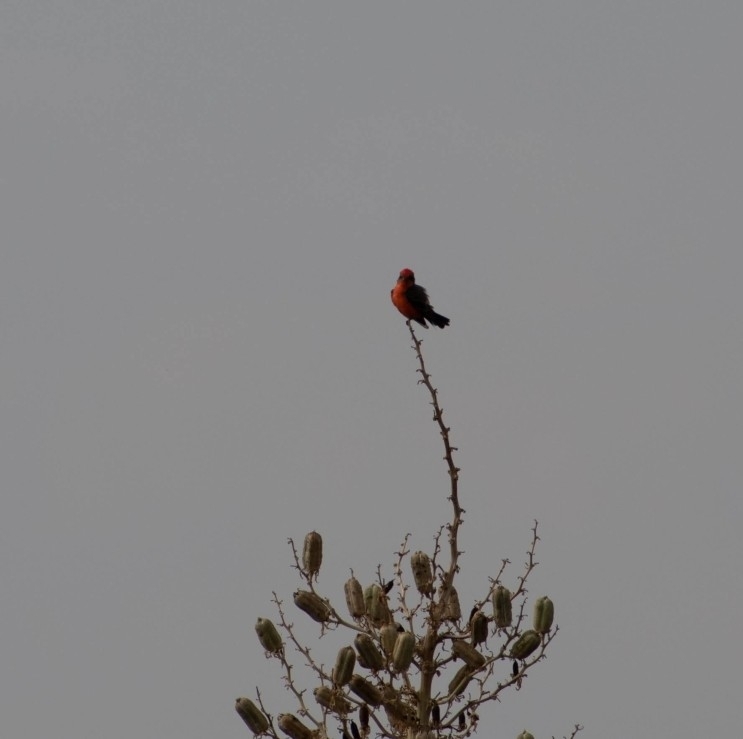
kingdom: Animalia
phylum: Chordata
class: Aves
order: Passeriformes
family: Tyrannidae
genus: Pyrocephalus
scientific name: Pyrocephalus rubinus
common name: Vermilion flycatcher
